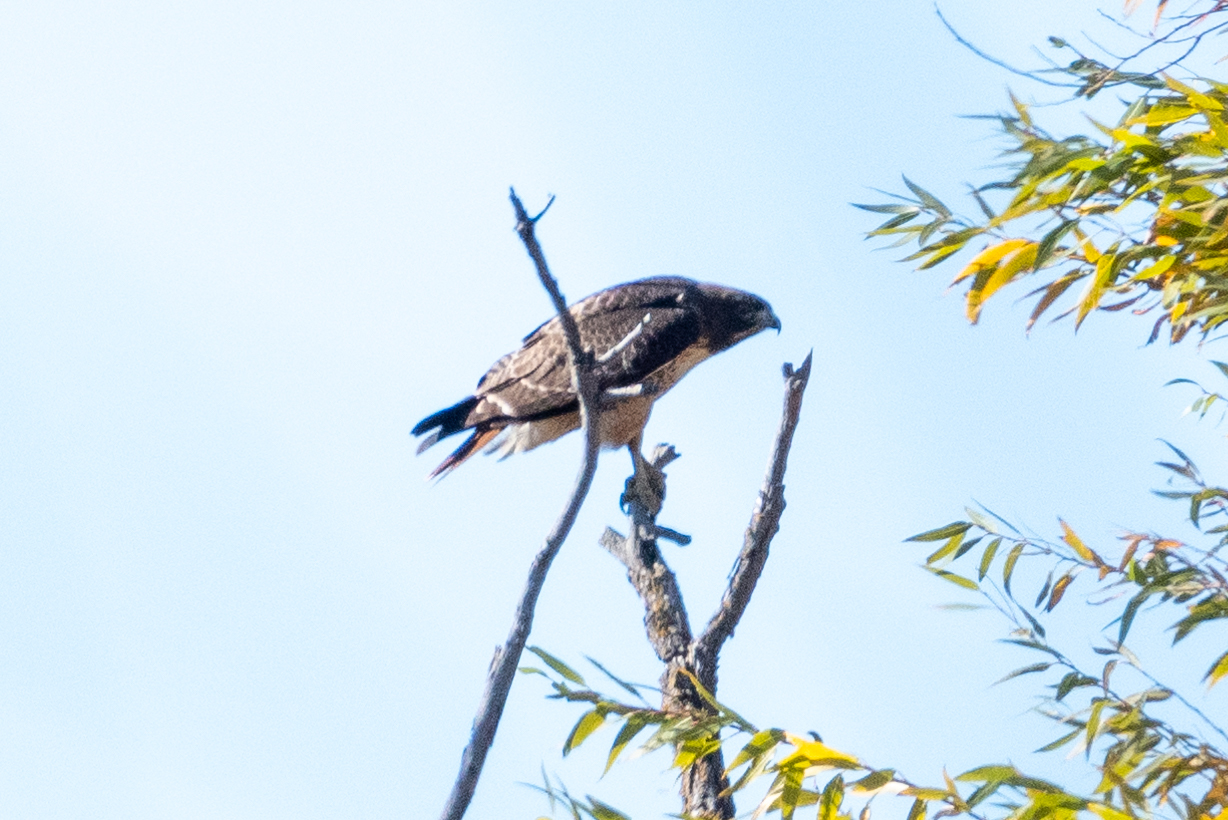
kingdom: Animalia
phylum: Chordata
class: Aves
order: Accipitriformes
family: Accipitridae
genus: Buteo
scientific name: Buteo jamaicensis
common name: Red-tailed hawk
